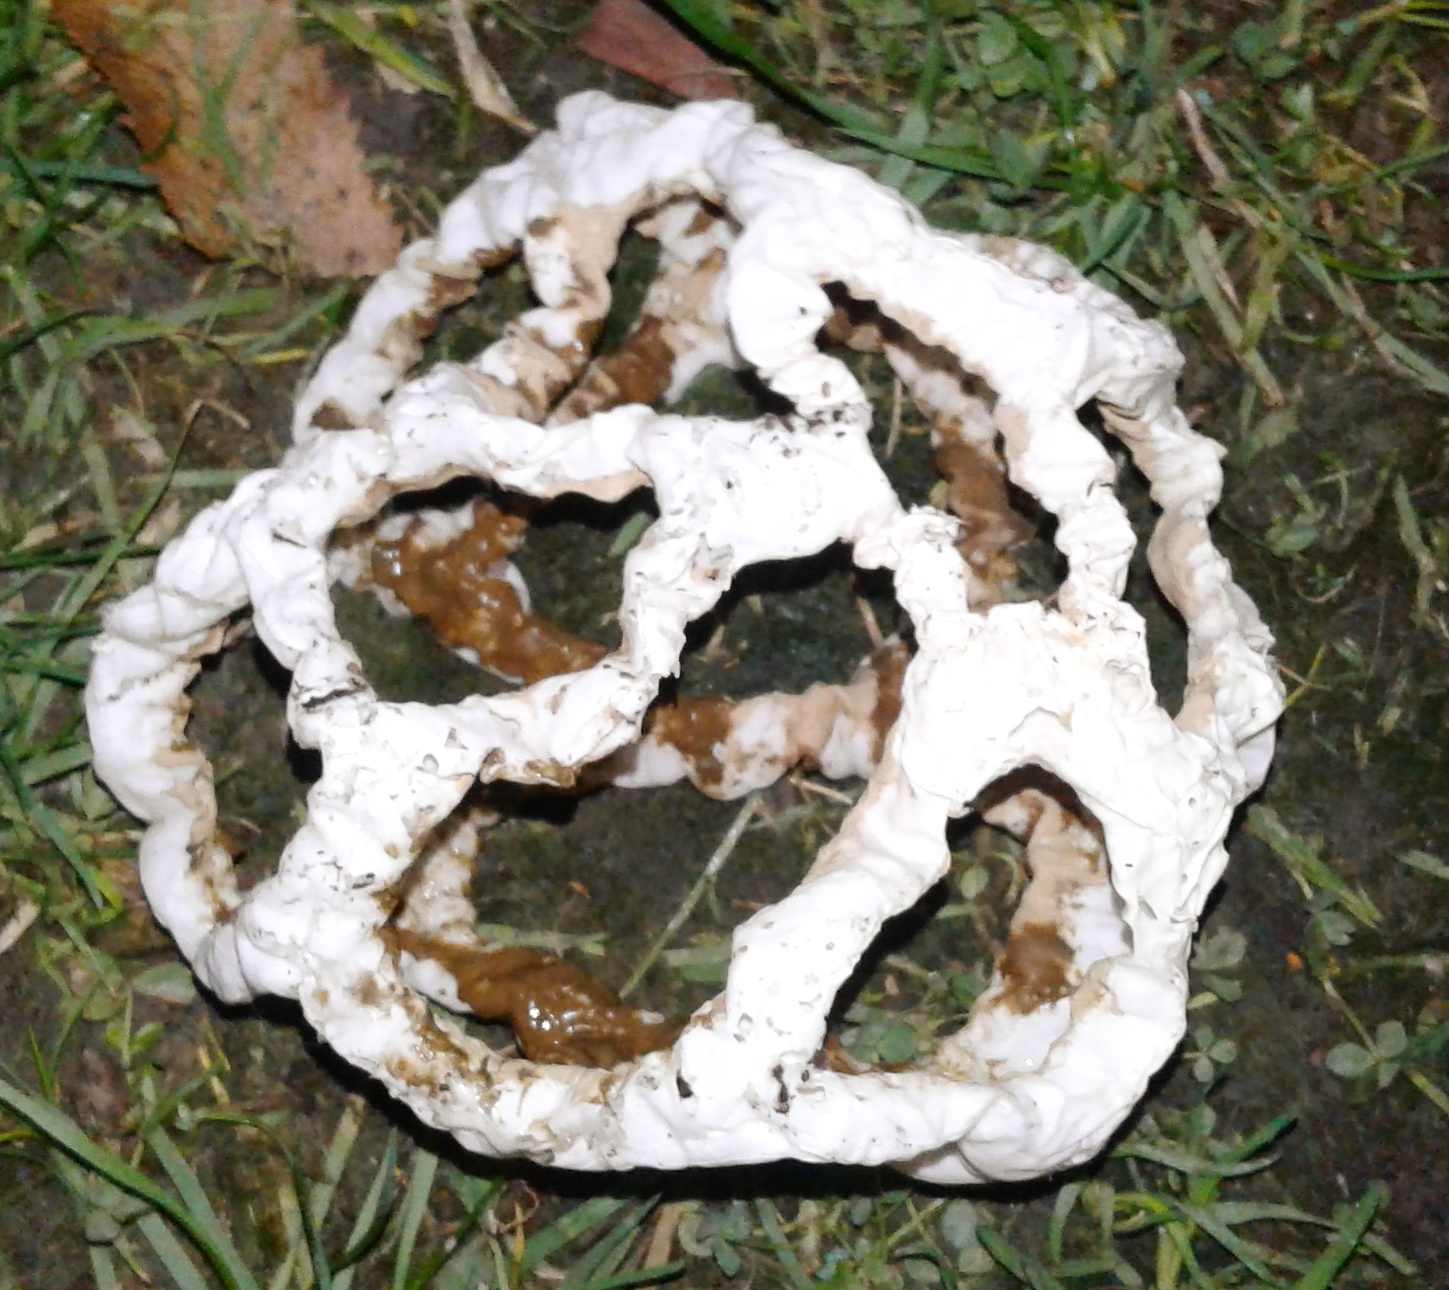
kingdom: Fungi
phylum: Basidiomycota
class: Agaricomycetes
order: Phallales
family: Phallaceae
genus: Ileodictyon
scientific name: Ileodictyon cibarium
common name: Basket fungus
